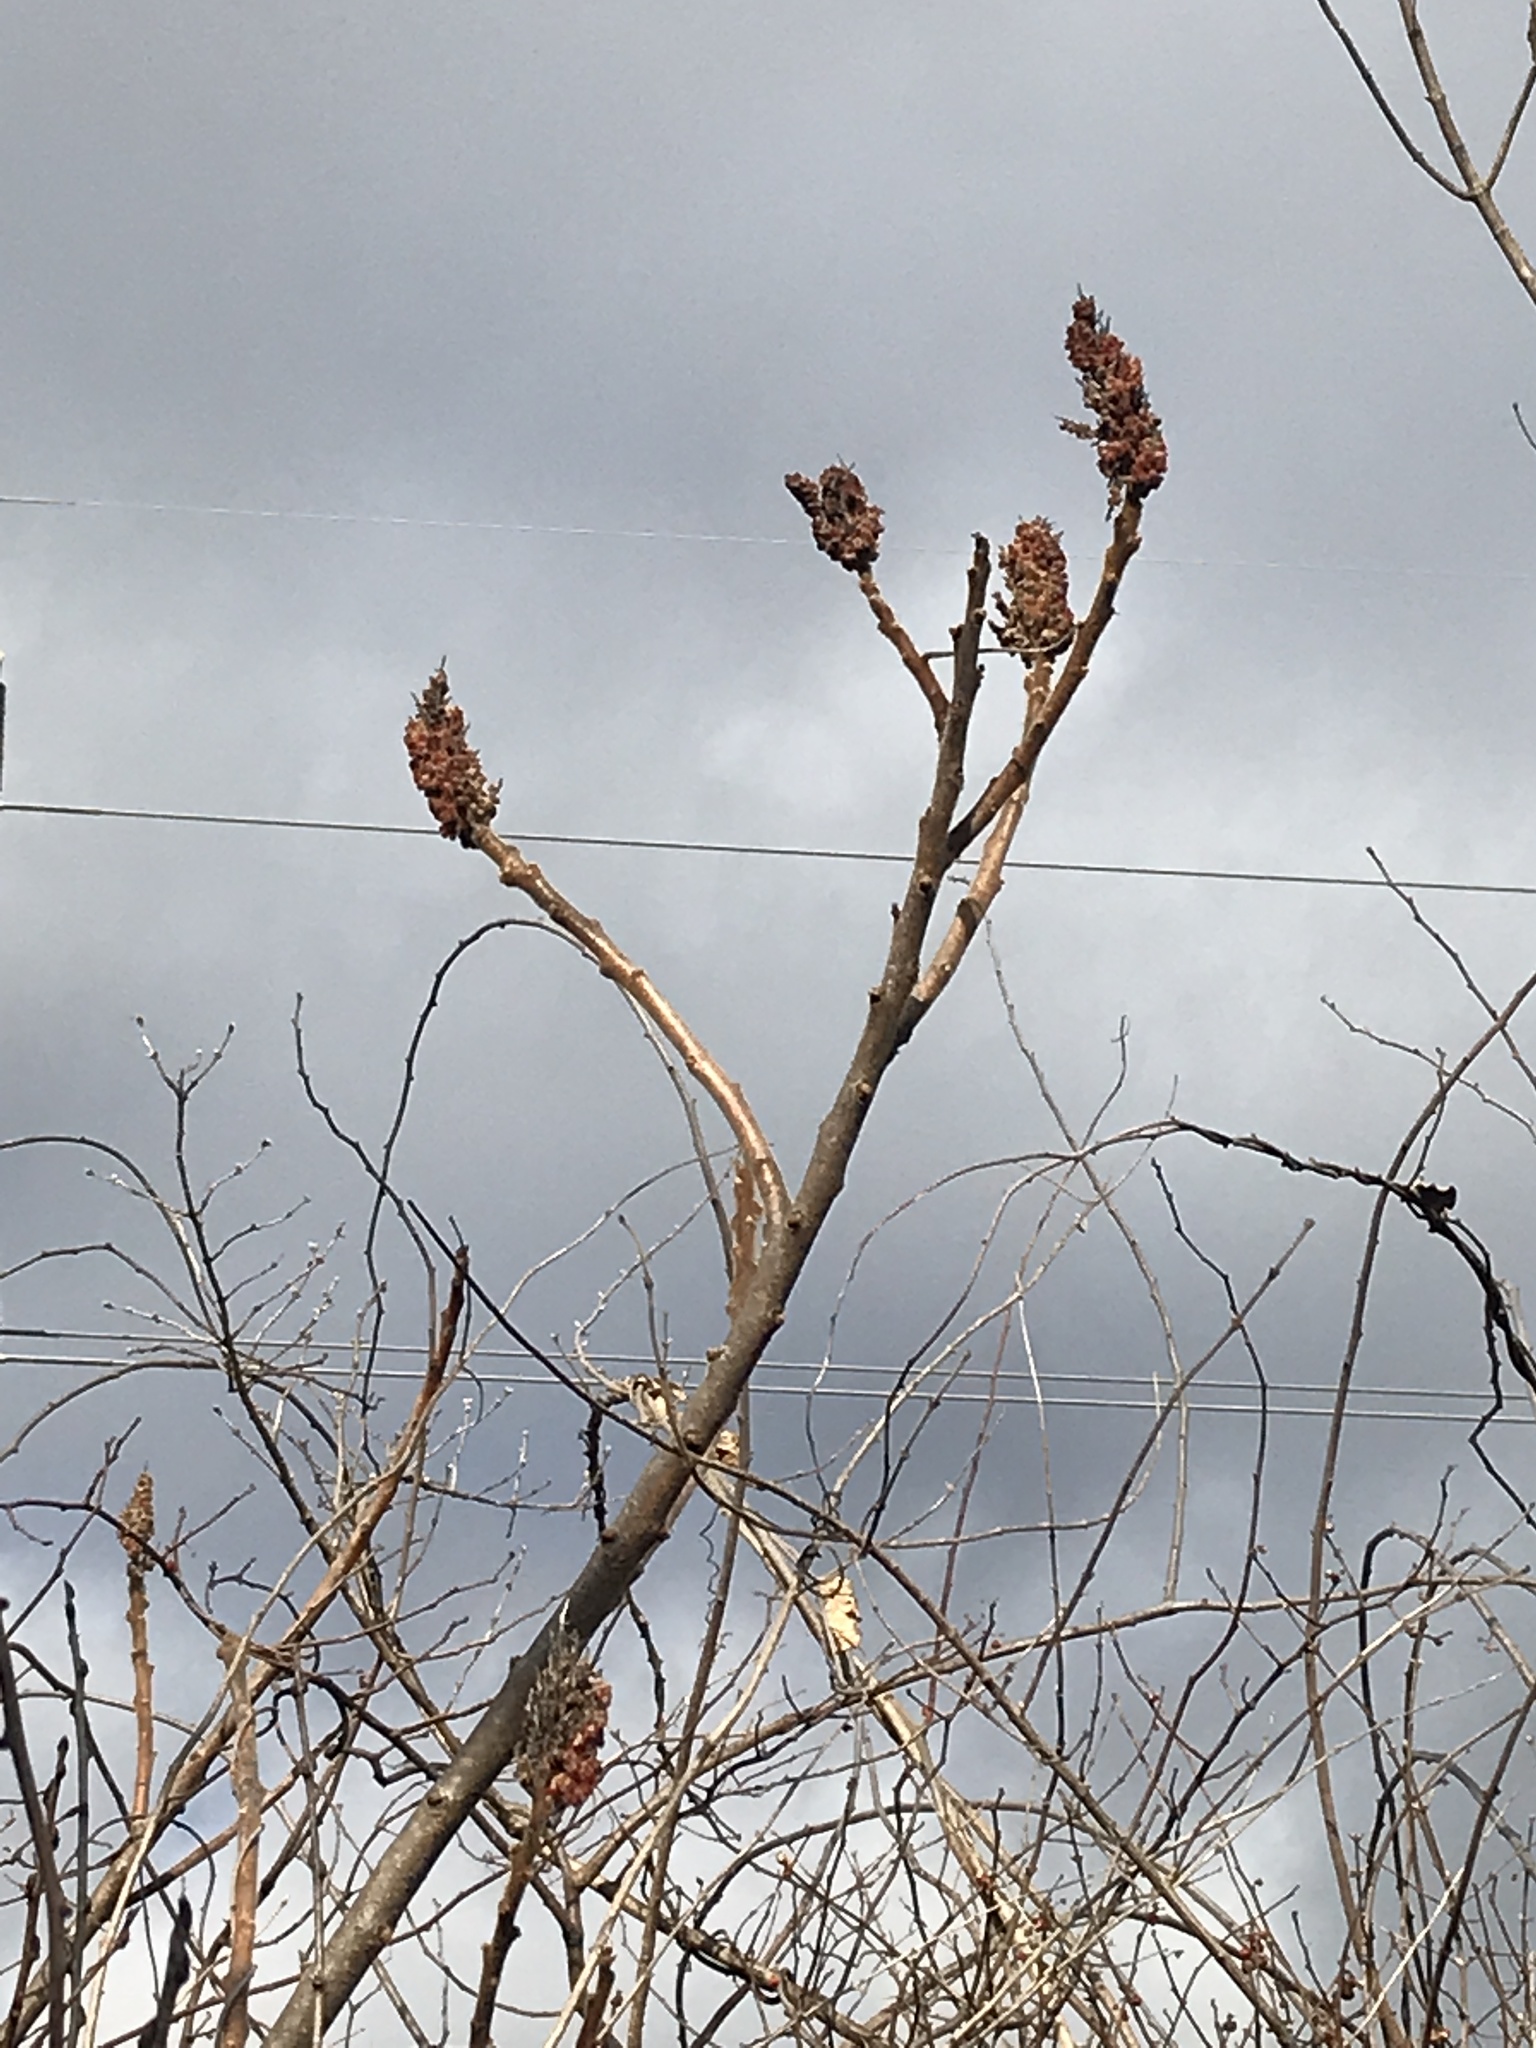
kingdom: Plantae
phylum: Tracheophyta
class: Magnoliopsida
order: Sapindales
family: Anacardiaceae
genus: Rhus
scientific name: Rhus typhina
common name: Staghorn sumac
